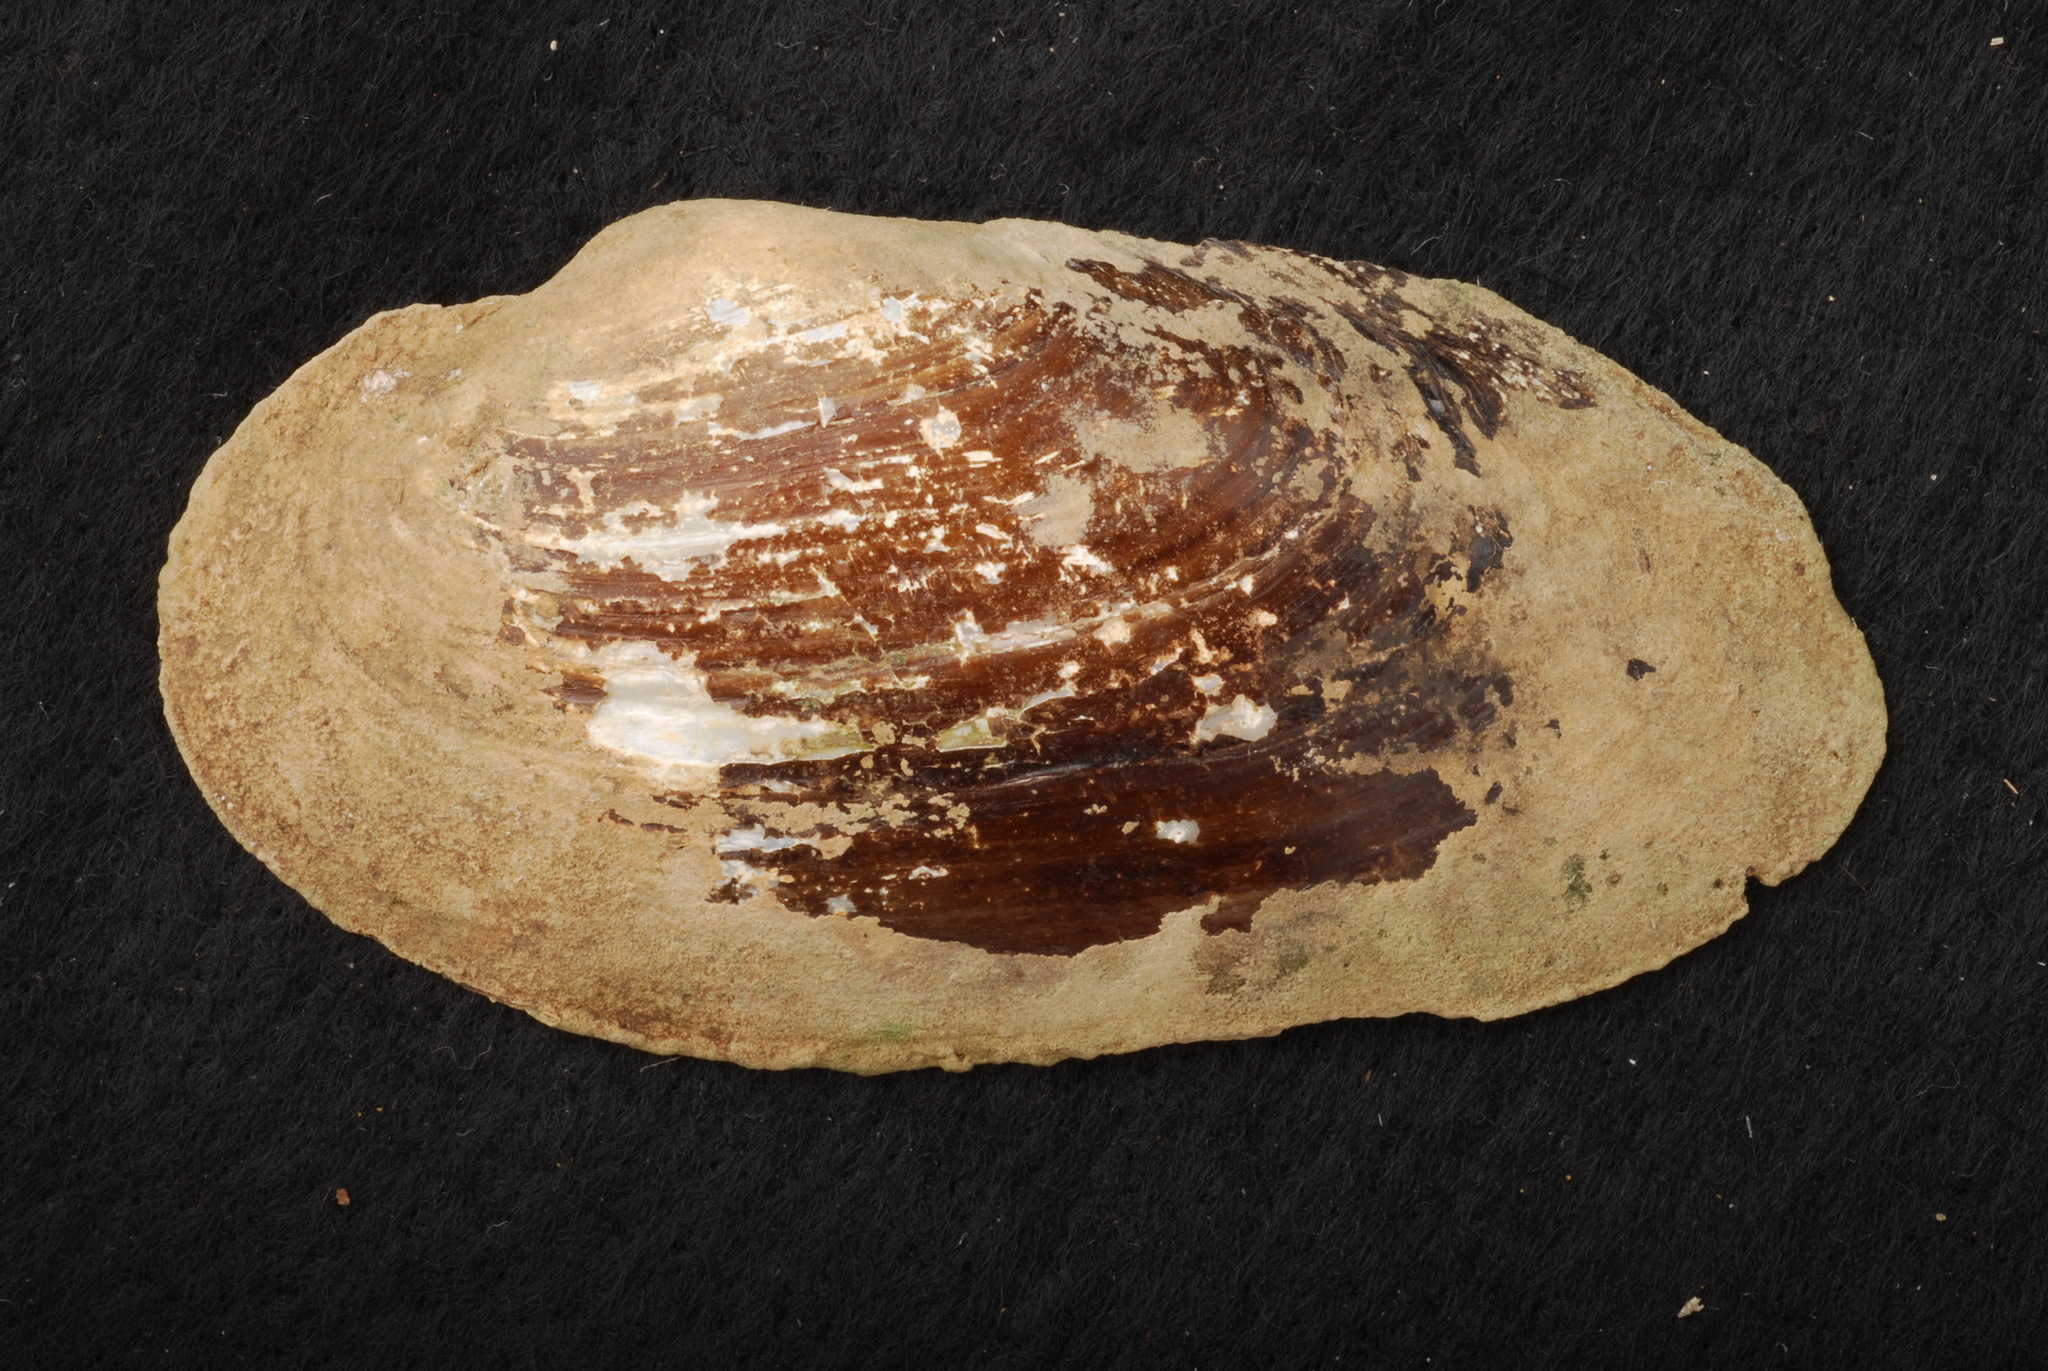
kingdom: Animalia
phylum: Mollusca
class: Bivalvia
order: Unionida
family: Unionidae
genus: Uniomerus
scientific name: Uniomerus tetralasmus
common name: Pondhorn
